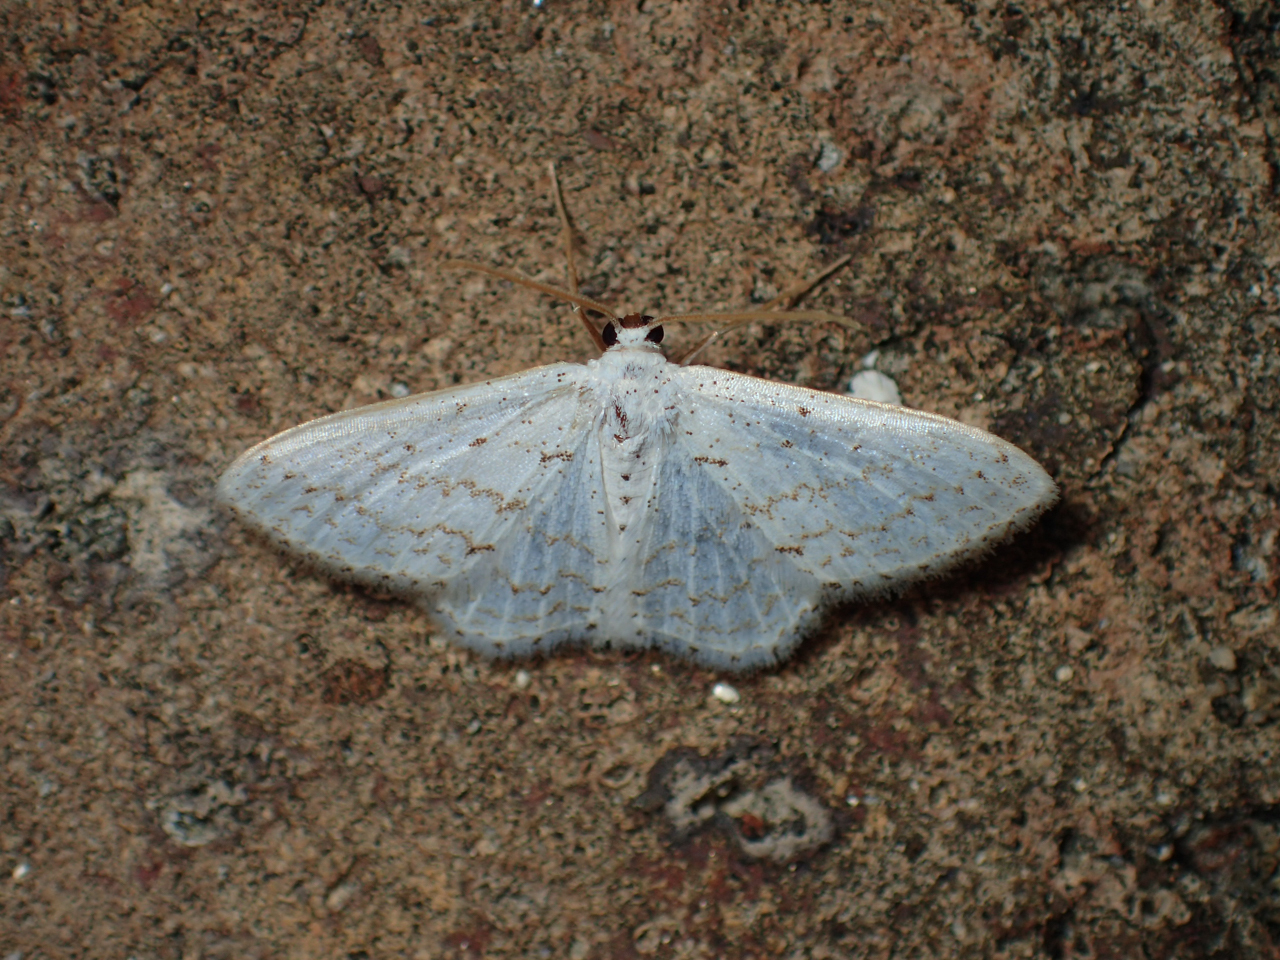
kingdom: Animalia
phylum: Arthropoda
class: Insecta
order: Lepidoptera
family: Geometridae
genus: Idaea
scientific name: Idaea tacturata
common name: Dot-lined wave
